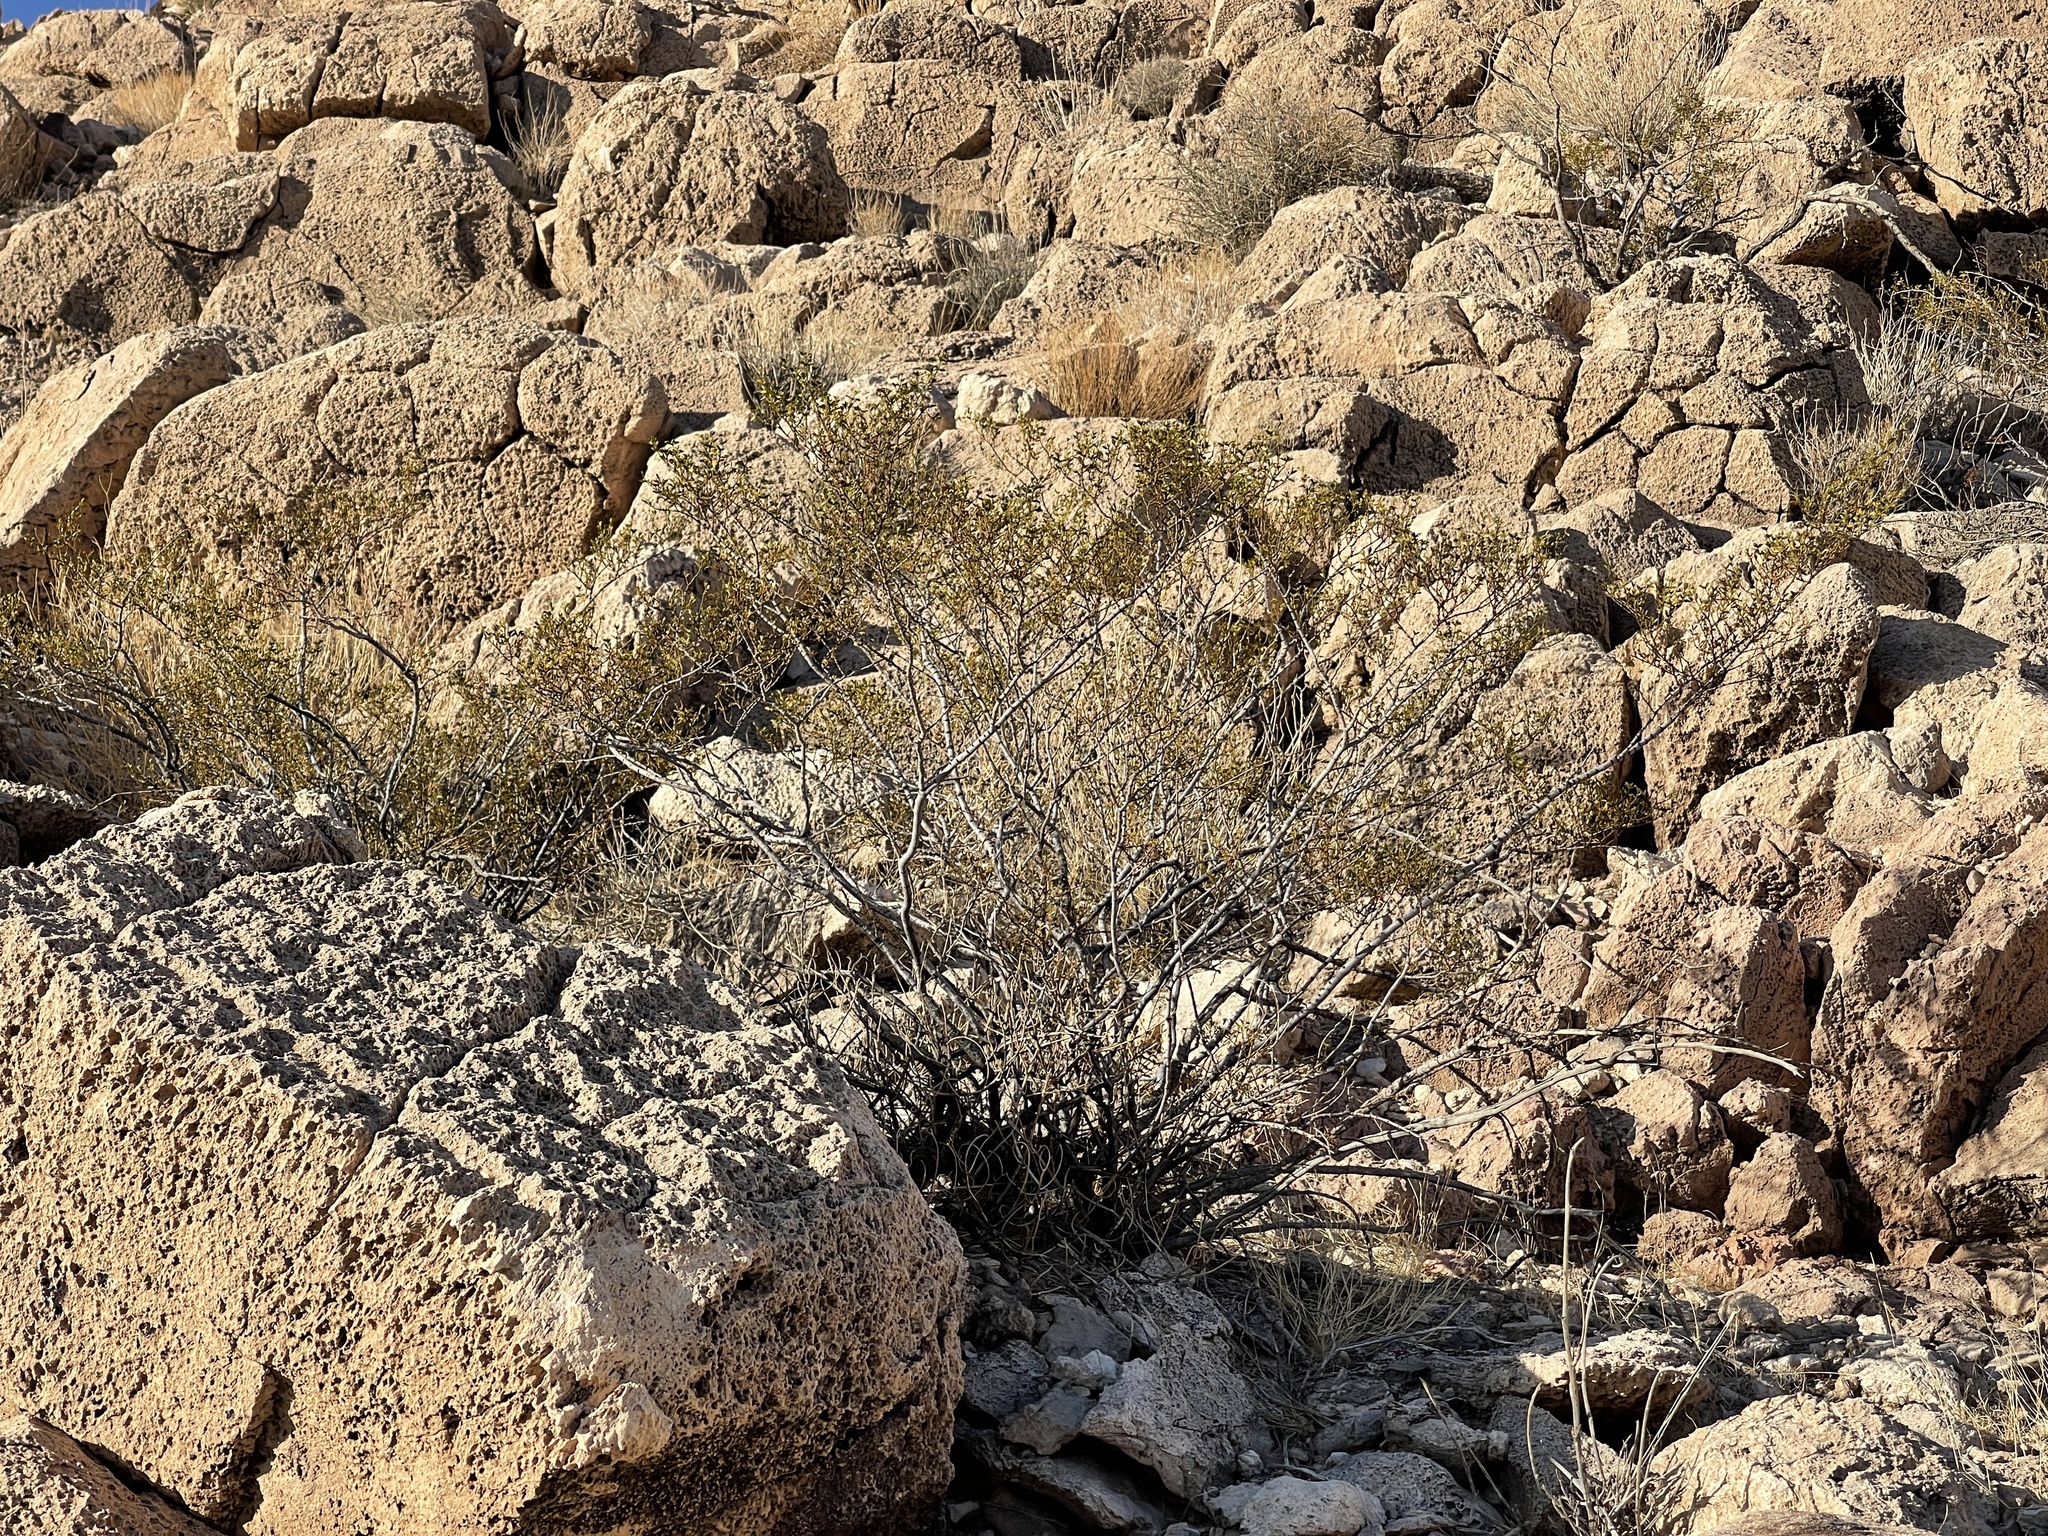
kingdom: Plantae
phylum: Tracheophyta
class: Magnoliopsida
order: Zygophyllales
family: Zygophyllaceae
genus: Larrea
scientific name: Larrea tridentata
